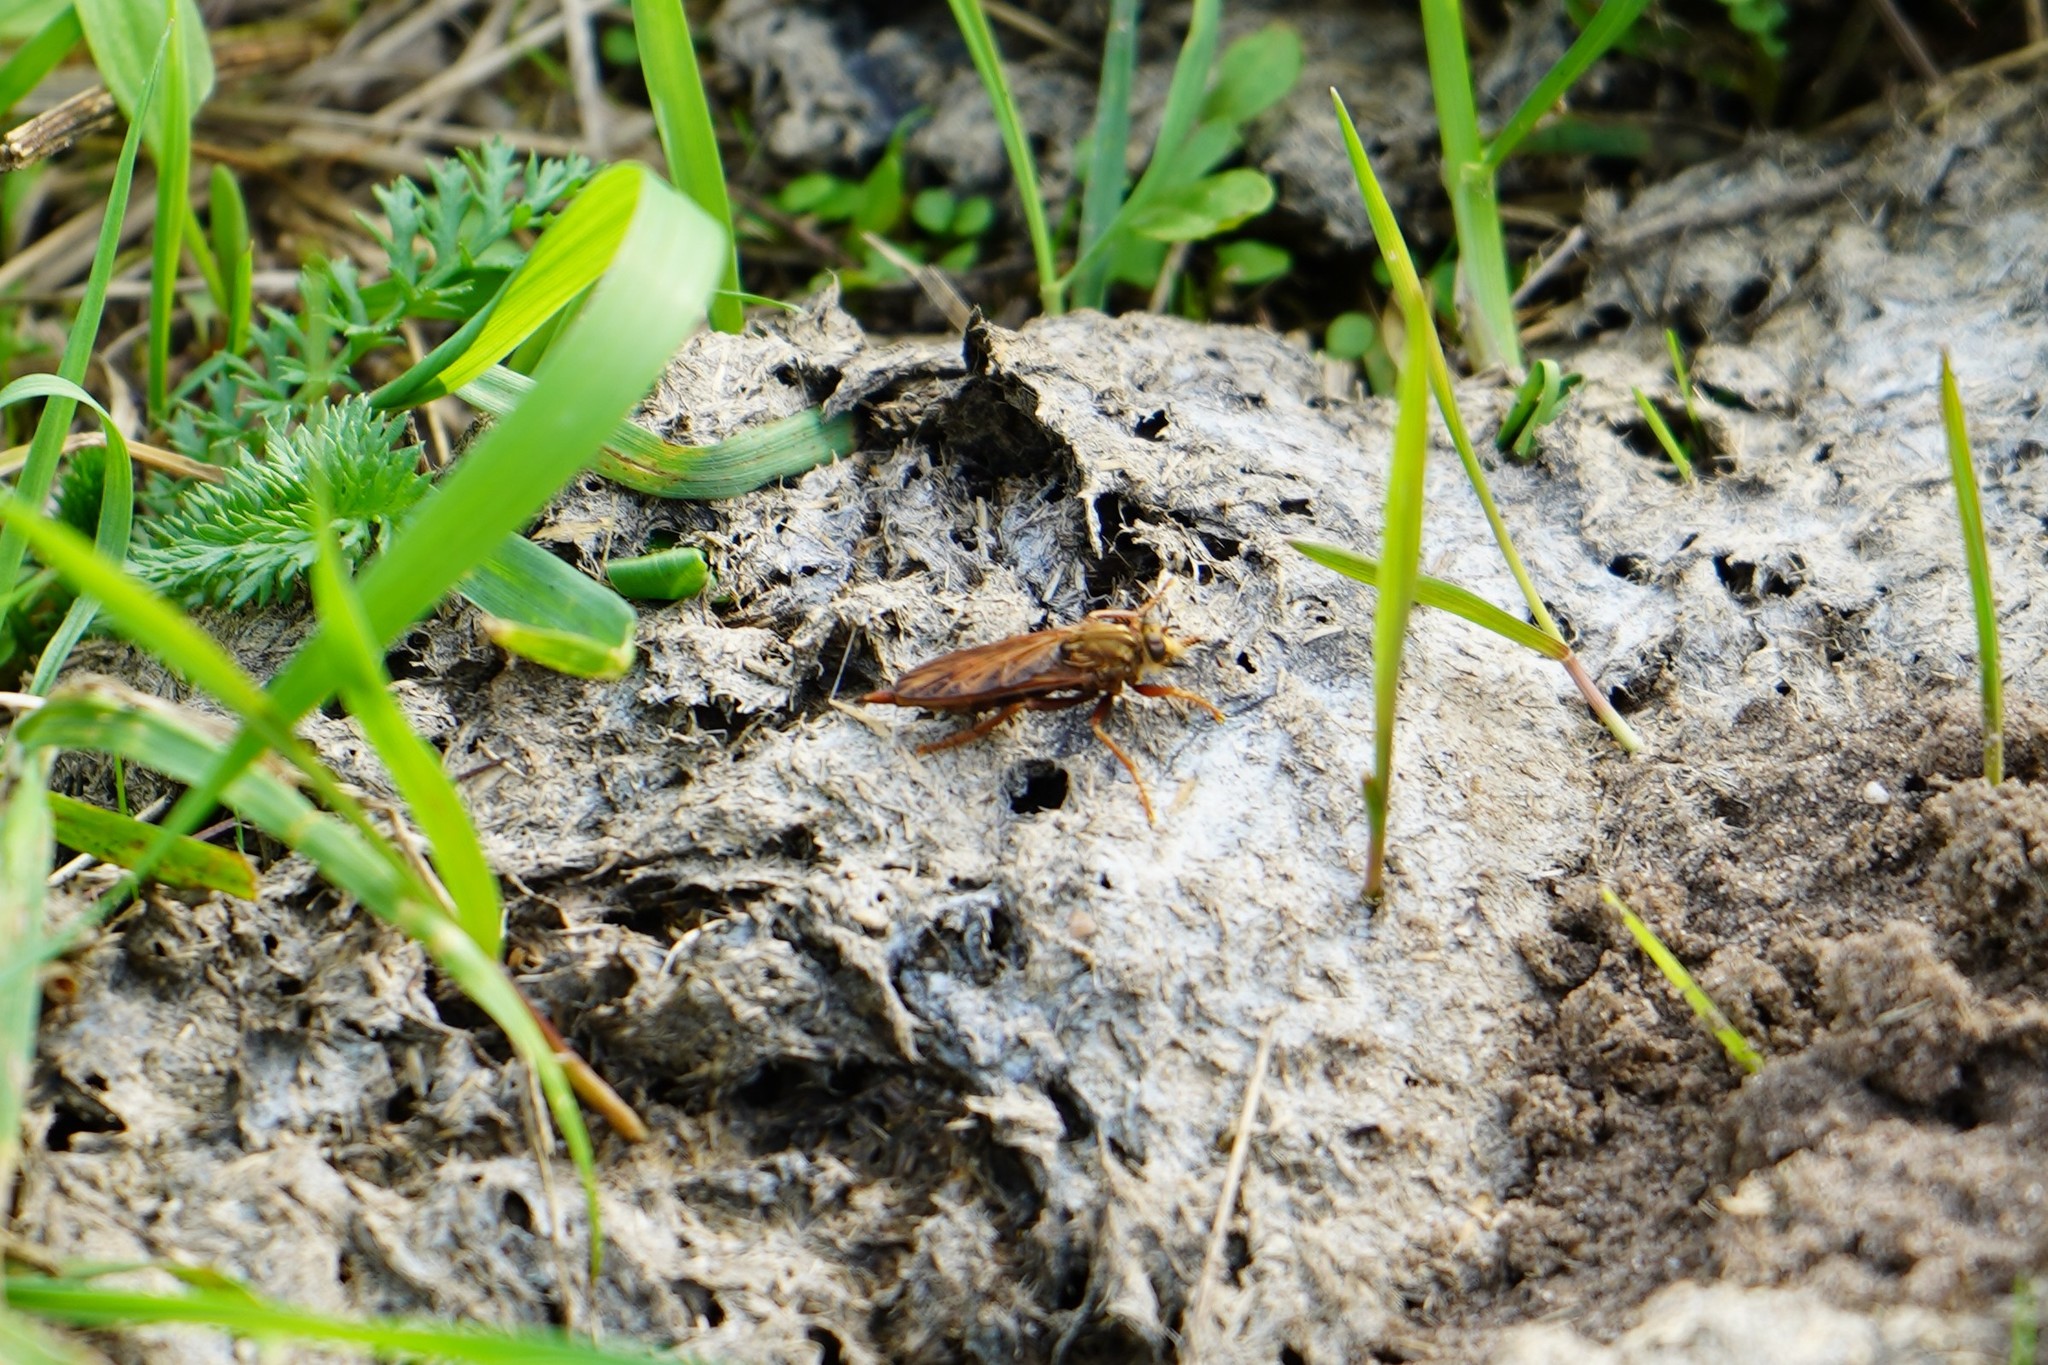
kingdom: Animalia
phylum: Arthropoda
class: Insecta
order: Diptera
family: Asilidae
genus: Asilus
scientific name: Asilus crabroniformis
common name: Hornet robberfly
